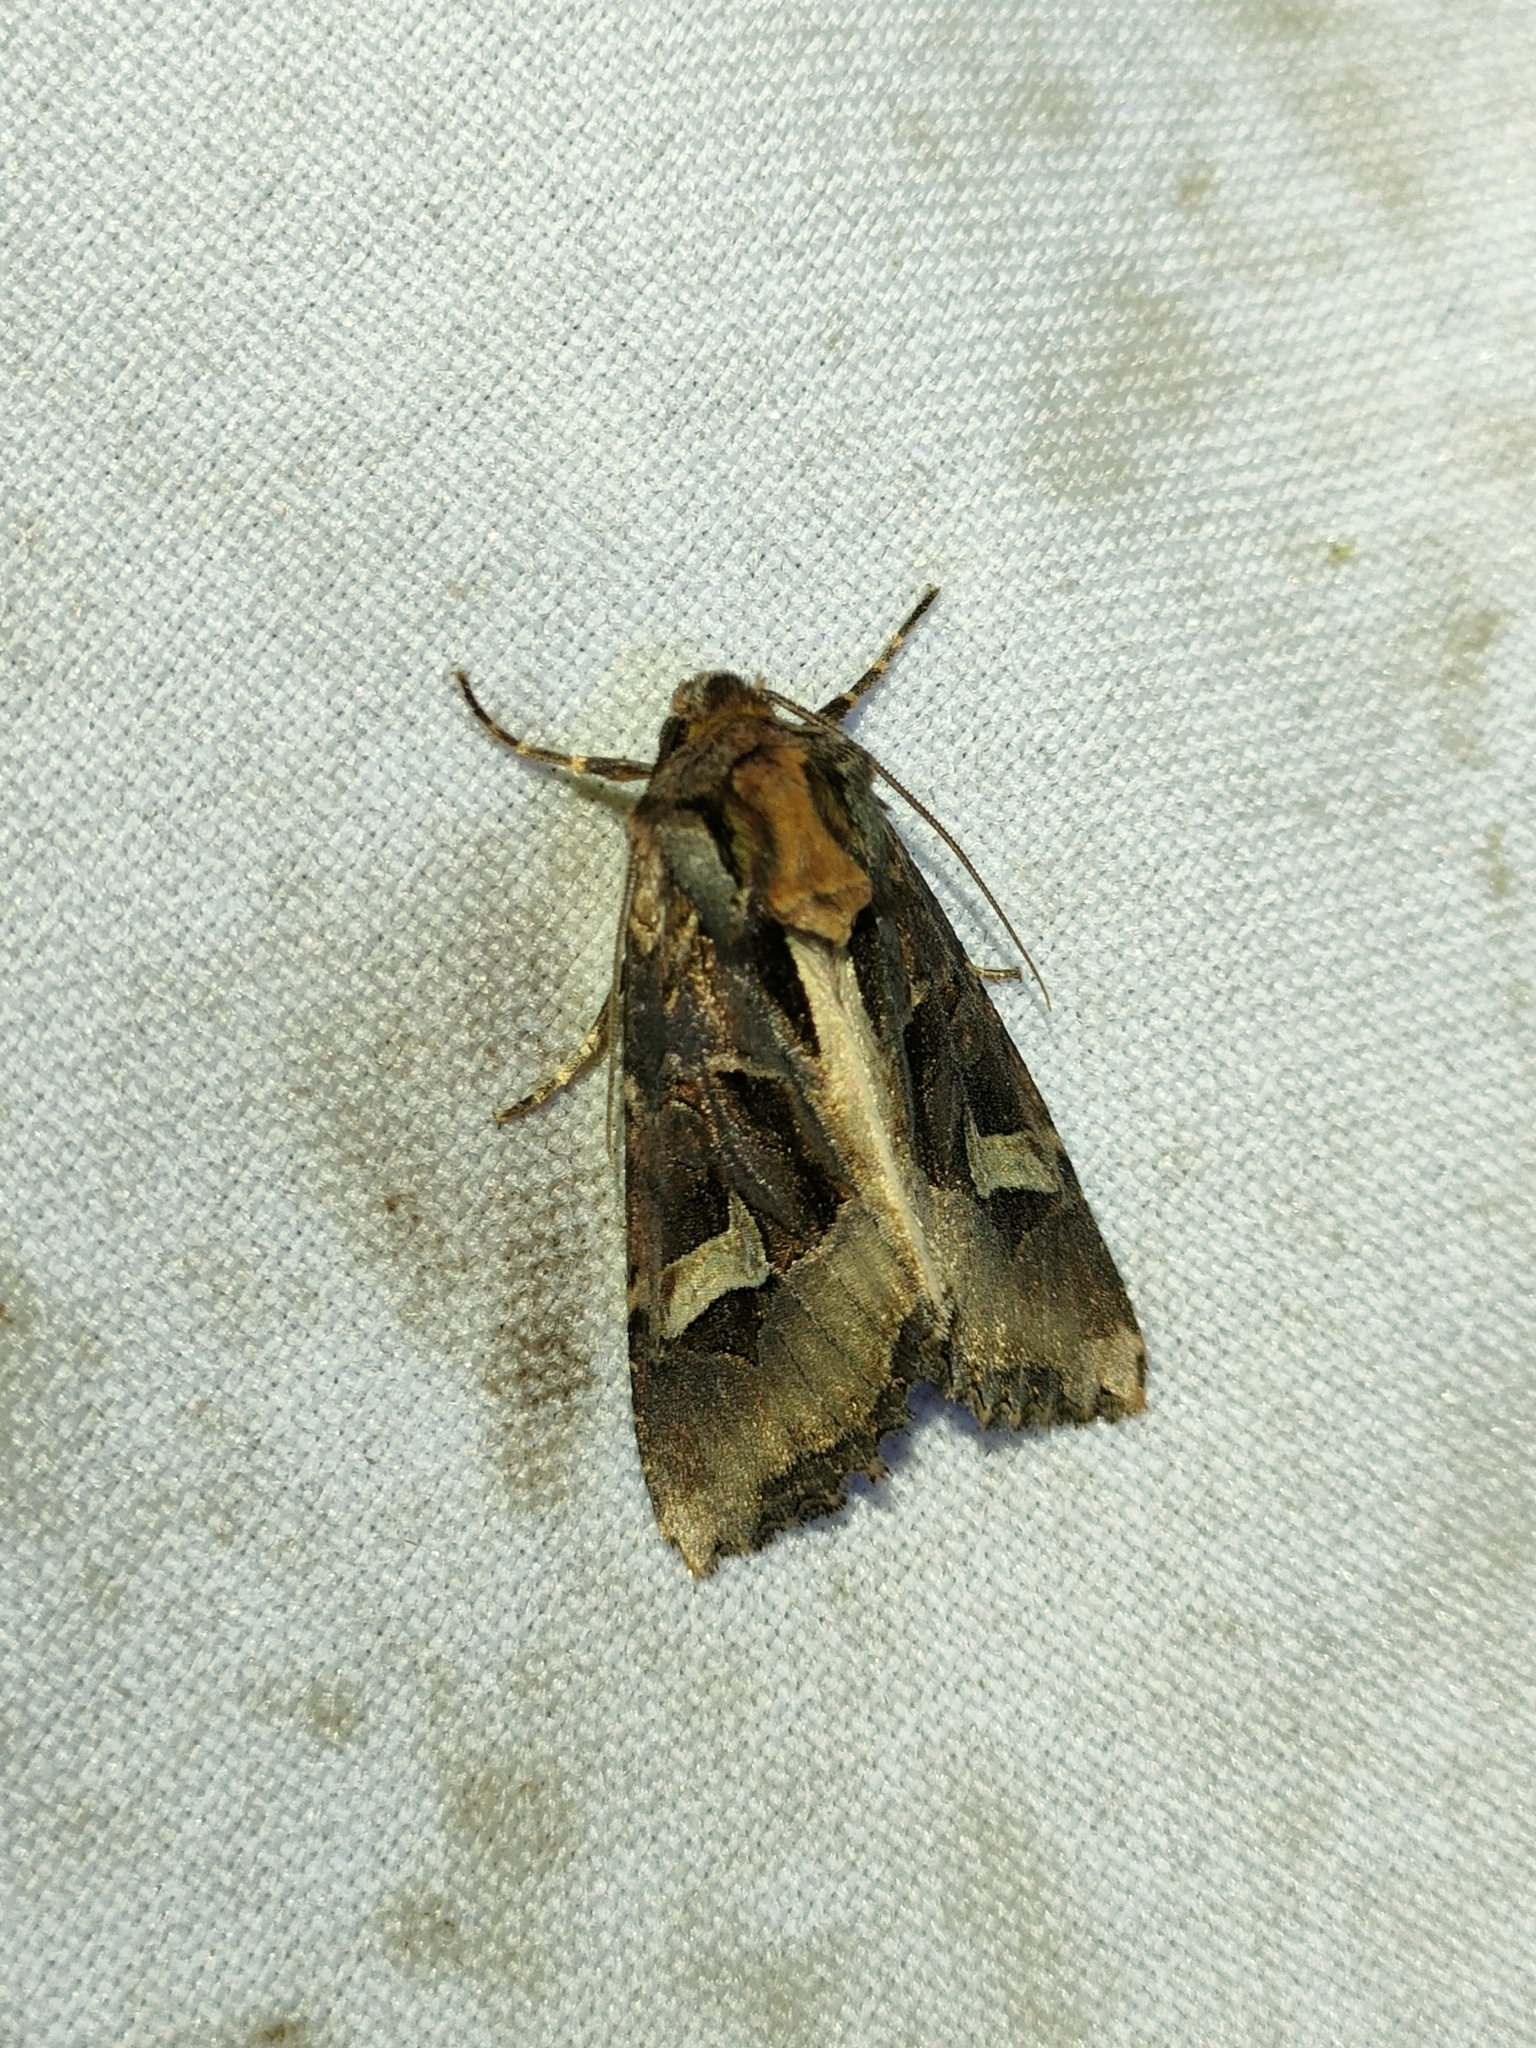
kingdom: Animalia
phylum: Arthropoda
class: Insecta
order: Lepidoptera
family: Noctuidae
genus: Trigonophora
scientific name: Trigonophora flammea
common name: Flame brocade
